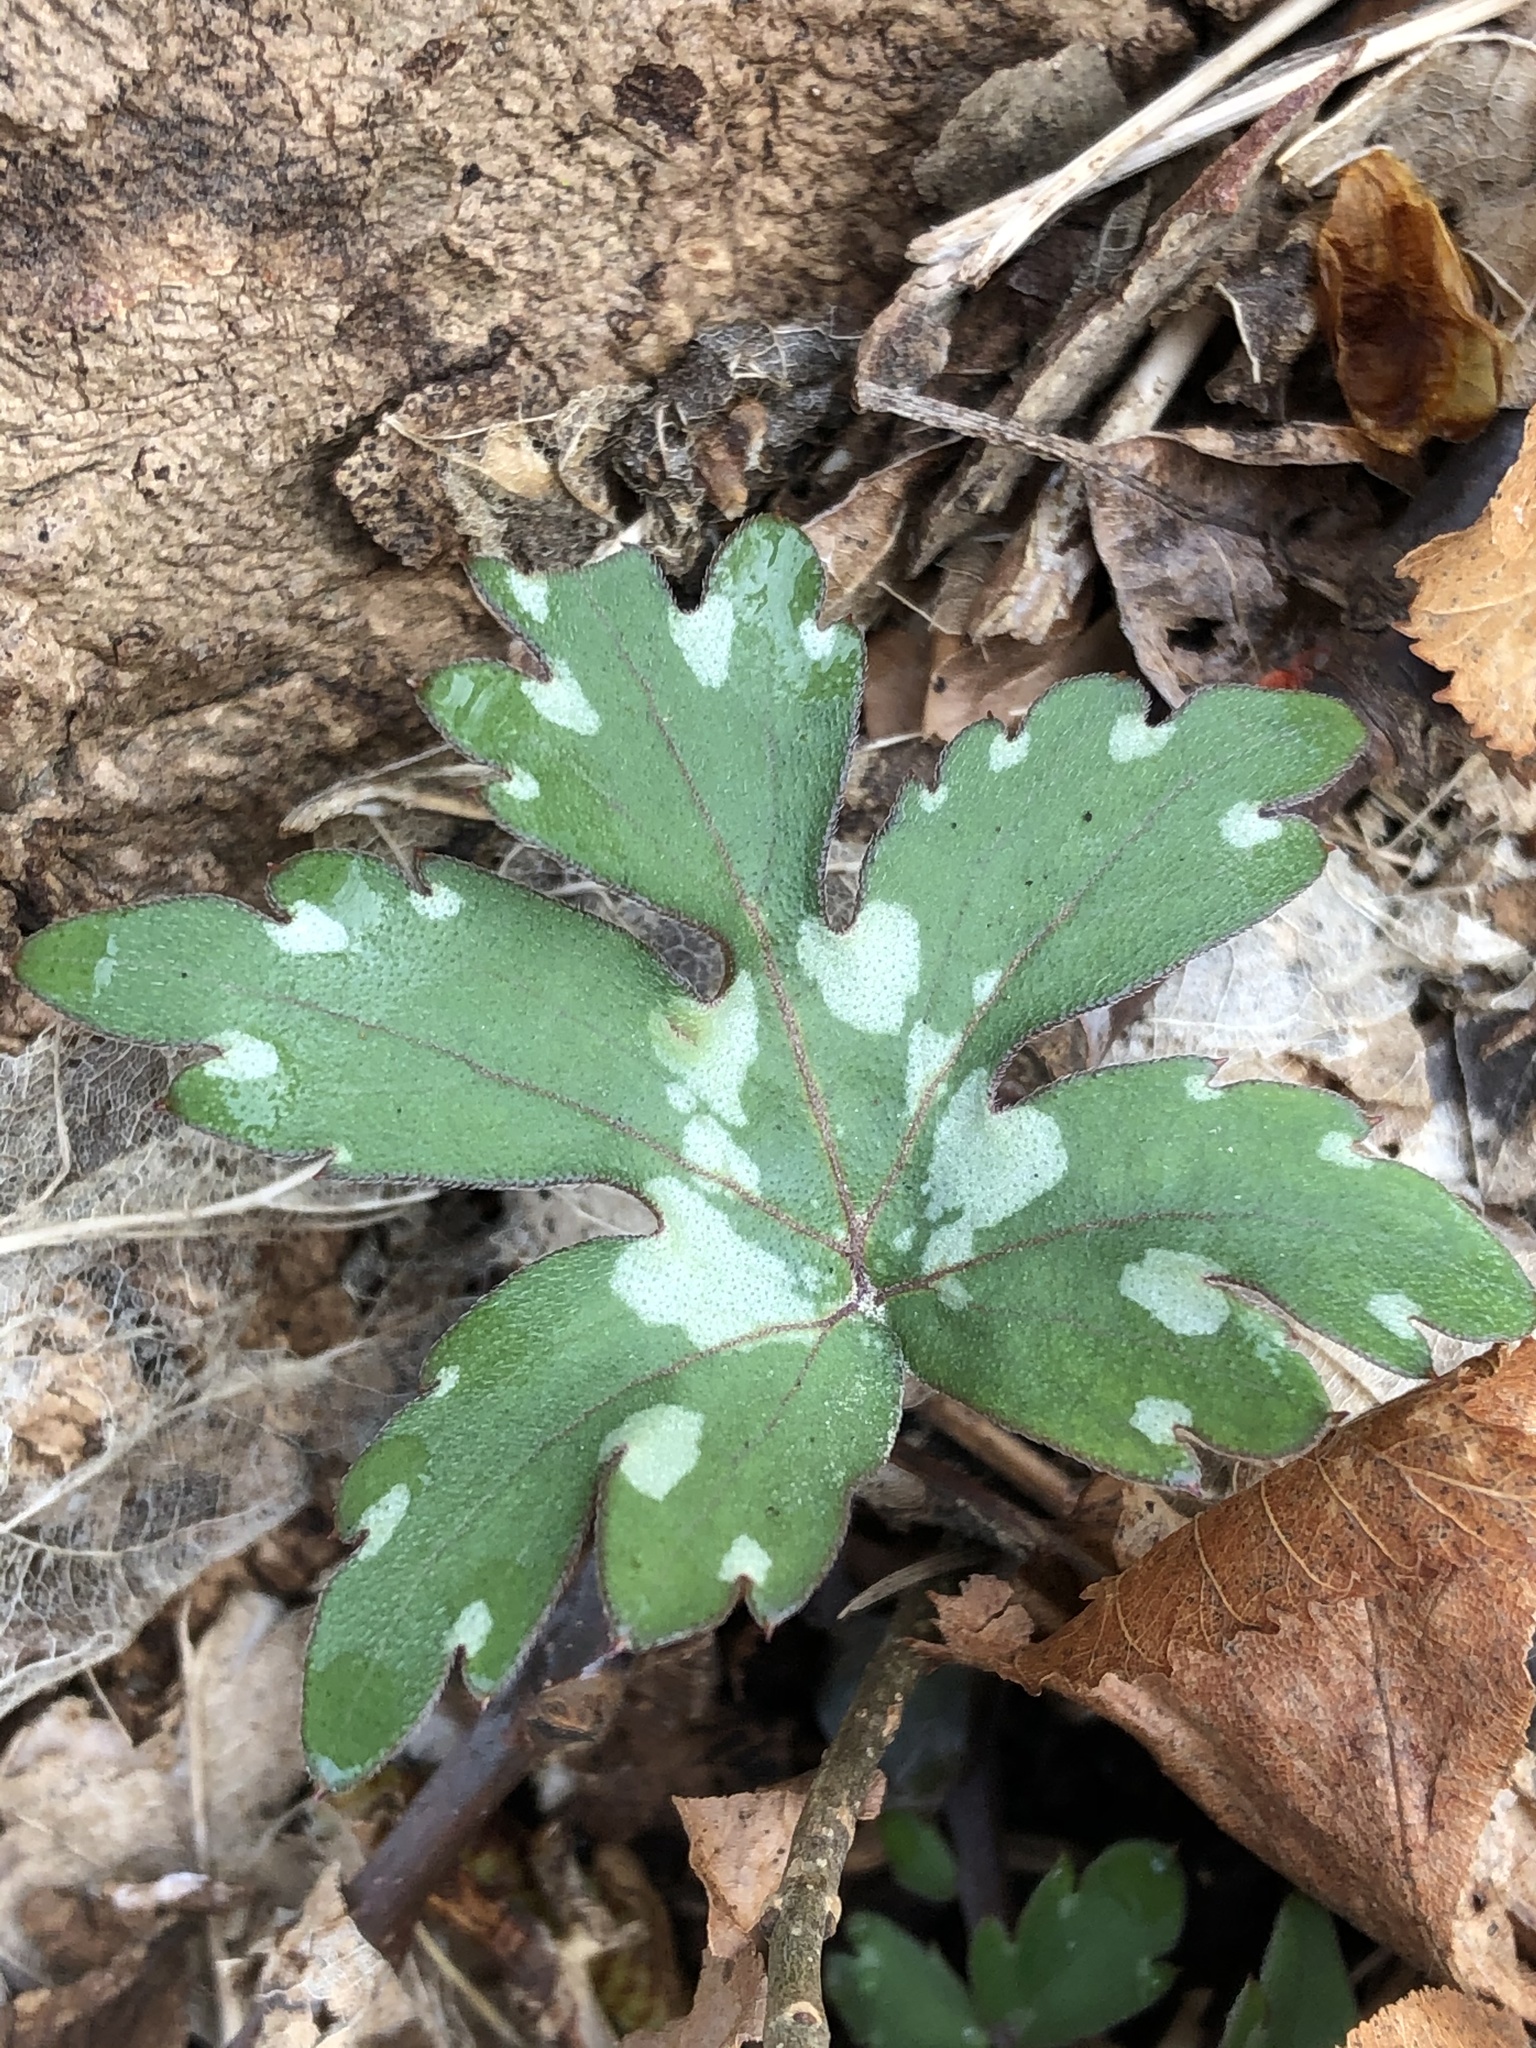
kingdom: Plantae
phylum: Tracheophyta
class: Magnoliopsida
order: Boraginales
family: Hydrophyllaceae
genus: Hydrophyllum
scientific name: Hydrophyllum canadense
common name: Canada waterleaf
